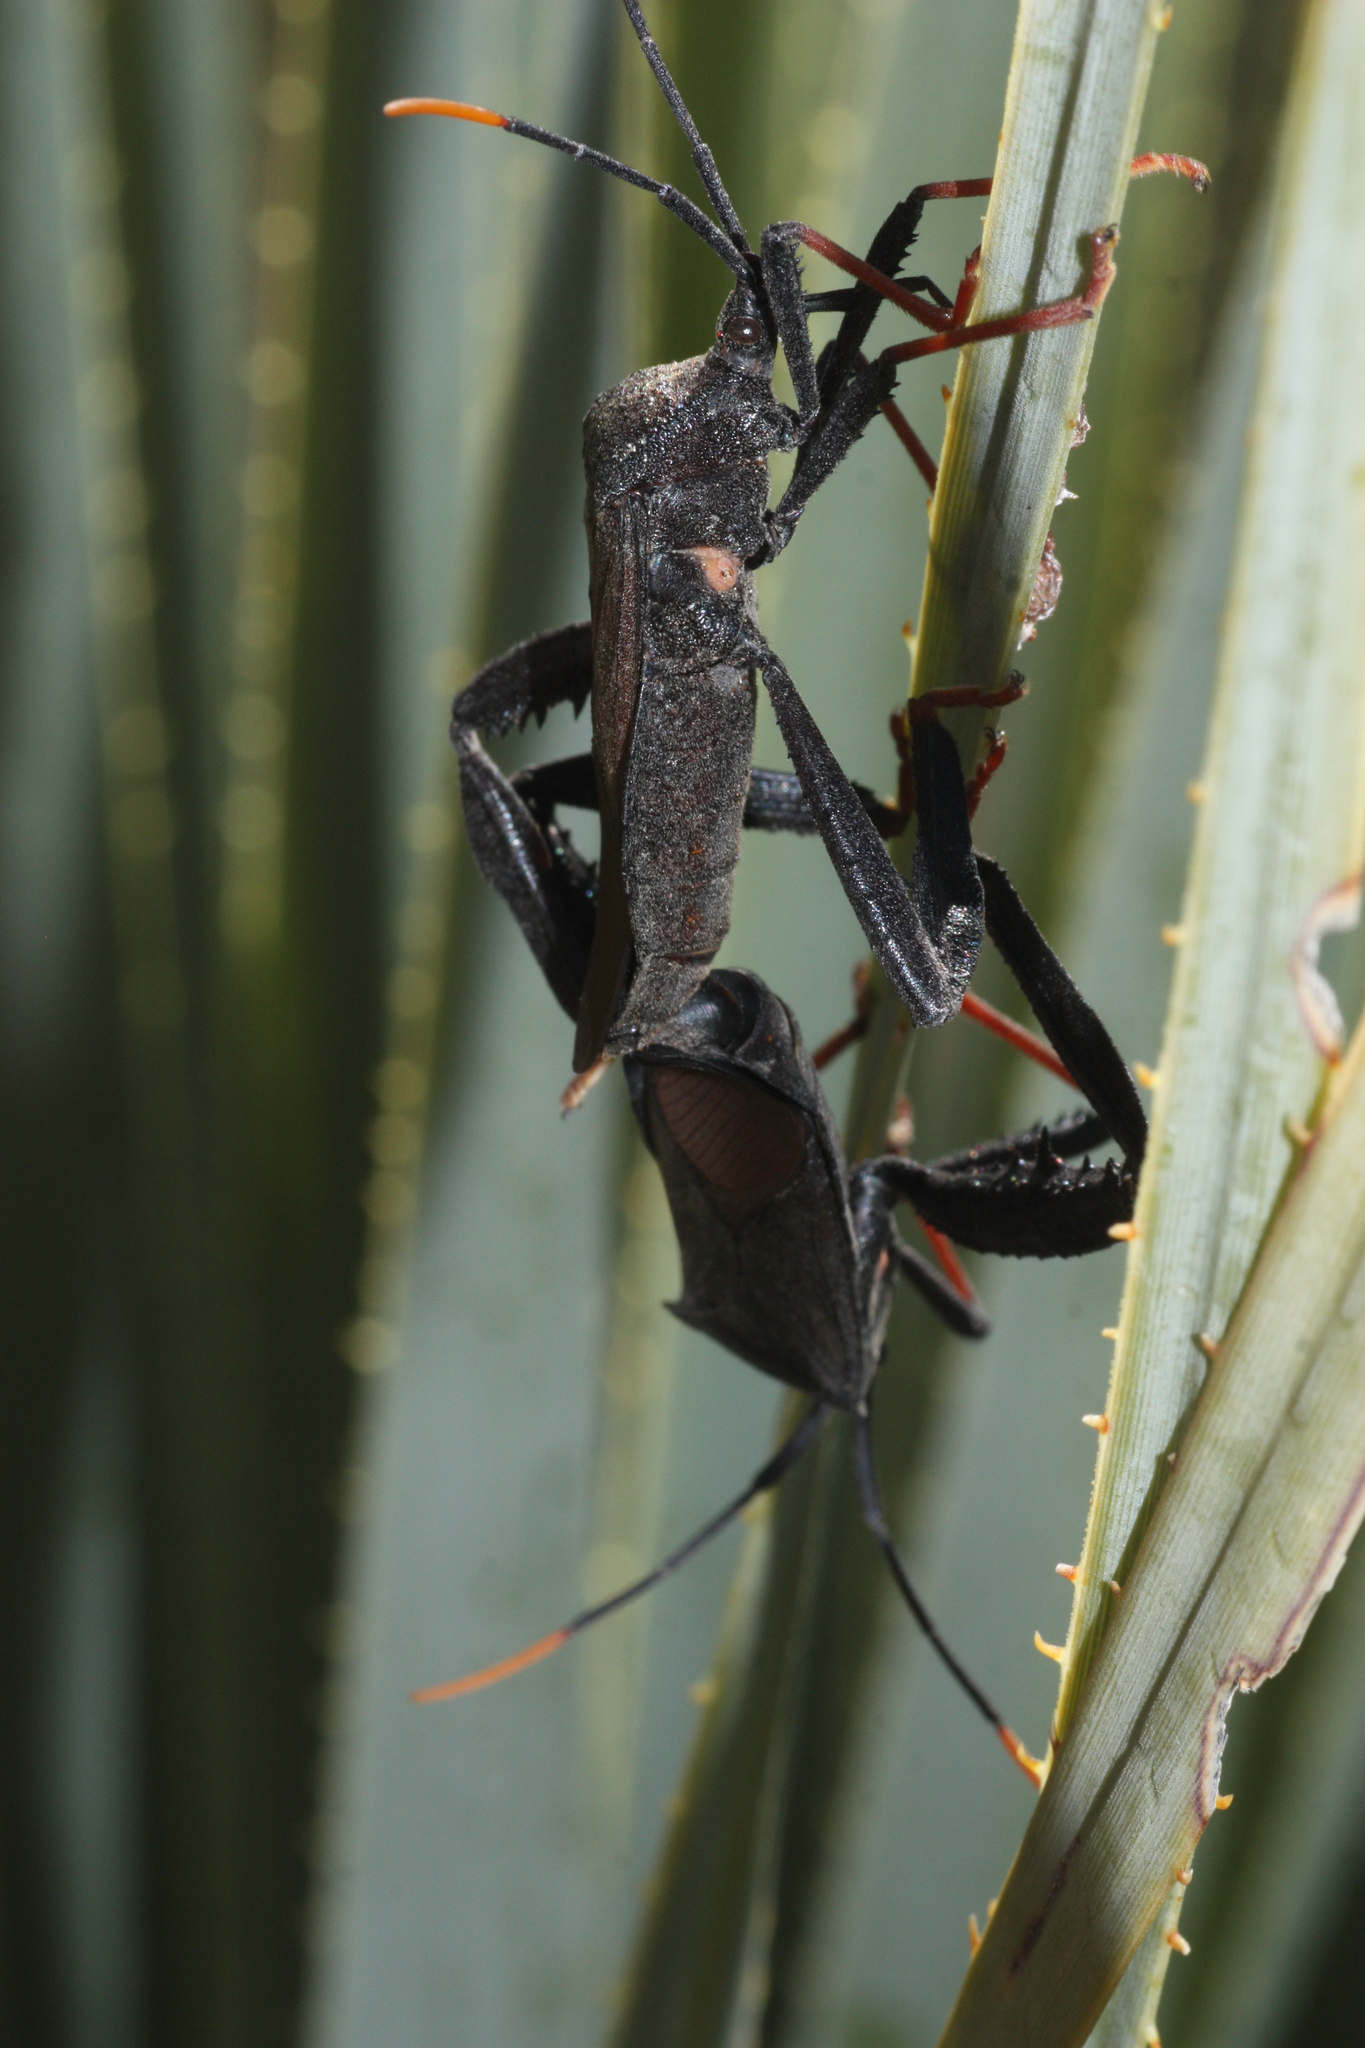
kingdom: Animalia
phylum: Arthropoda
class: Insecta
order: Hemiptera
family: Coreidae
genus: Acanthocephala
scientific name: Acanthocephala thomasi
